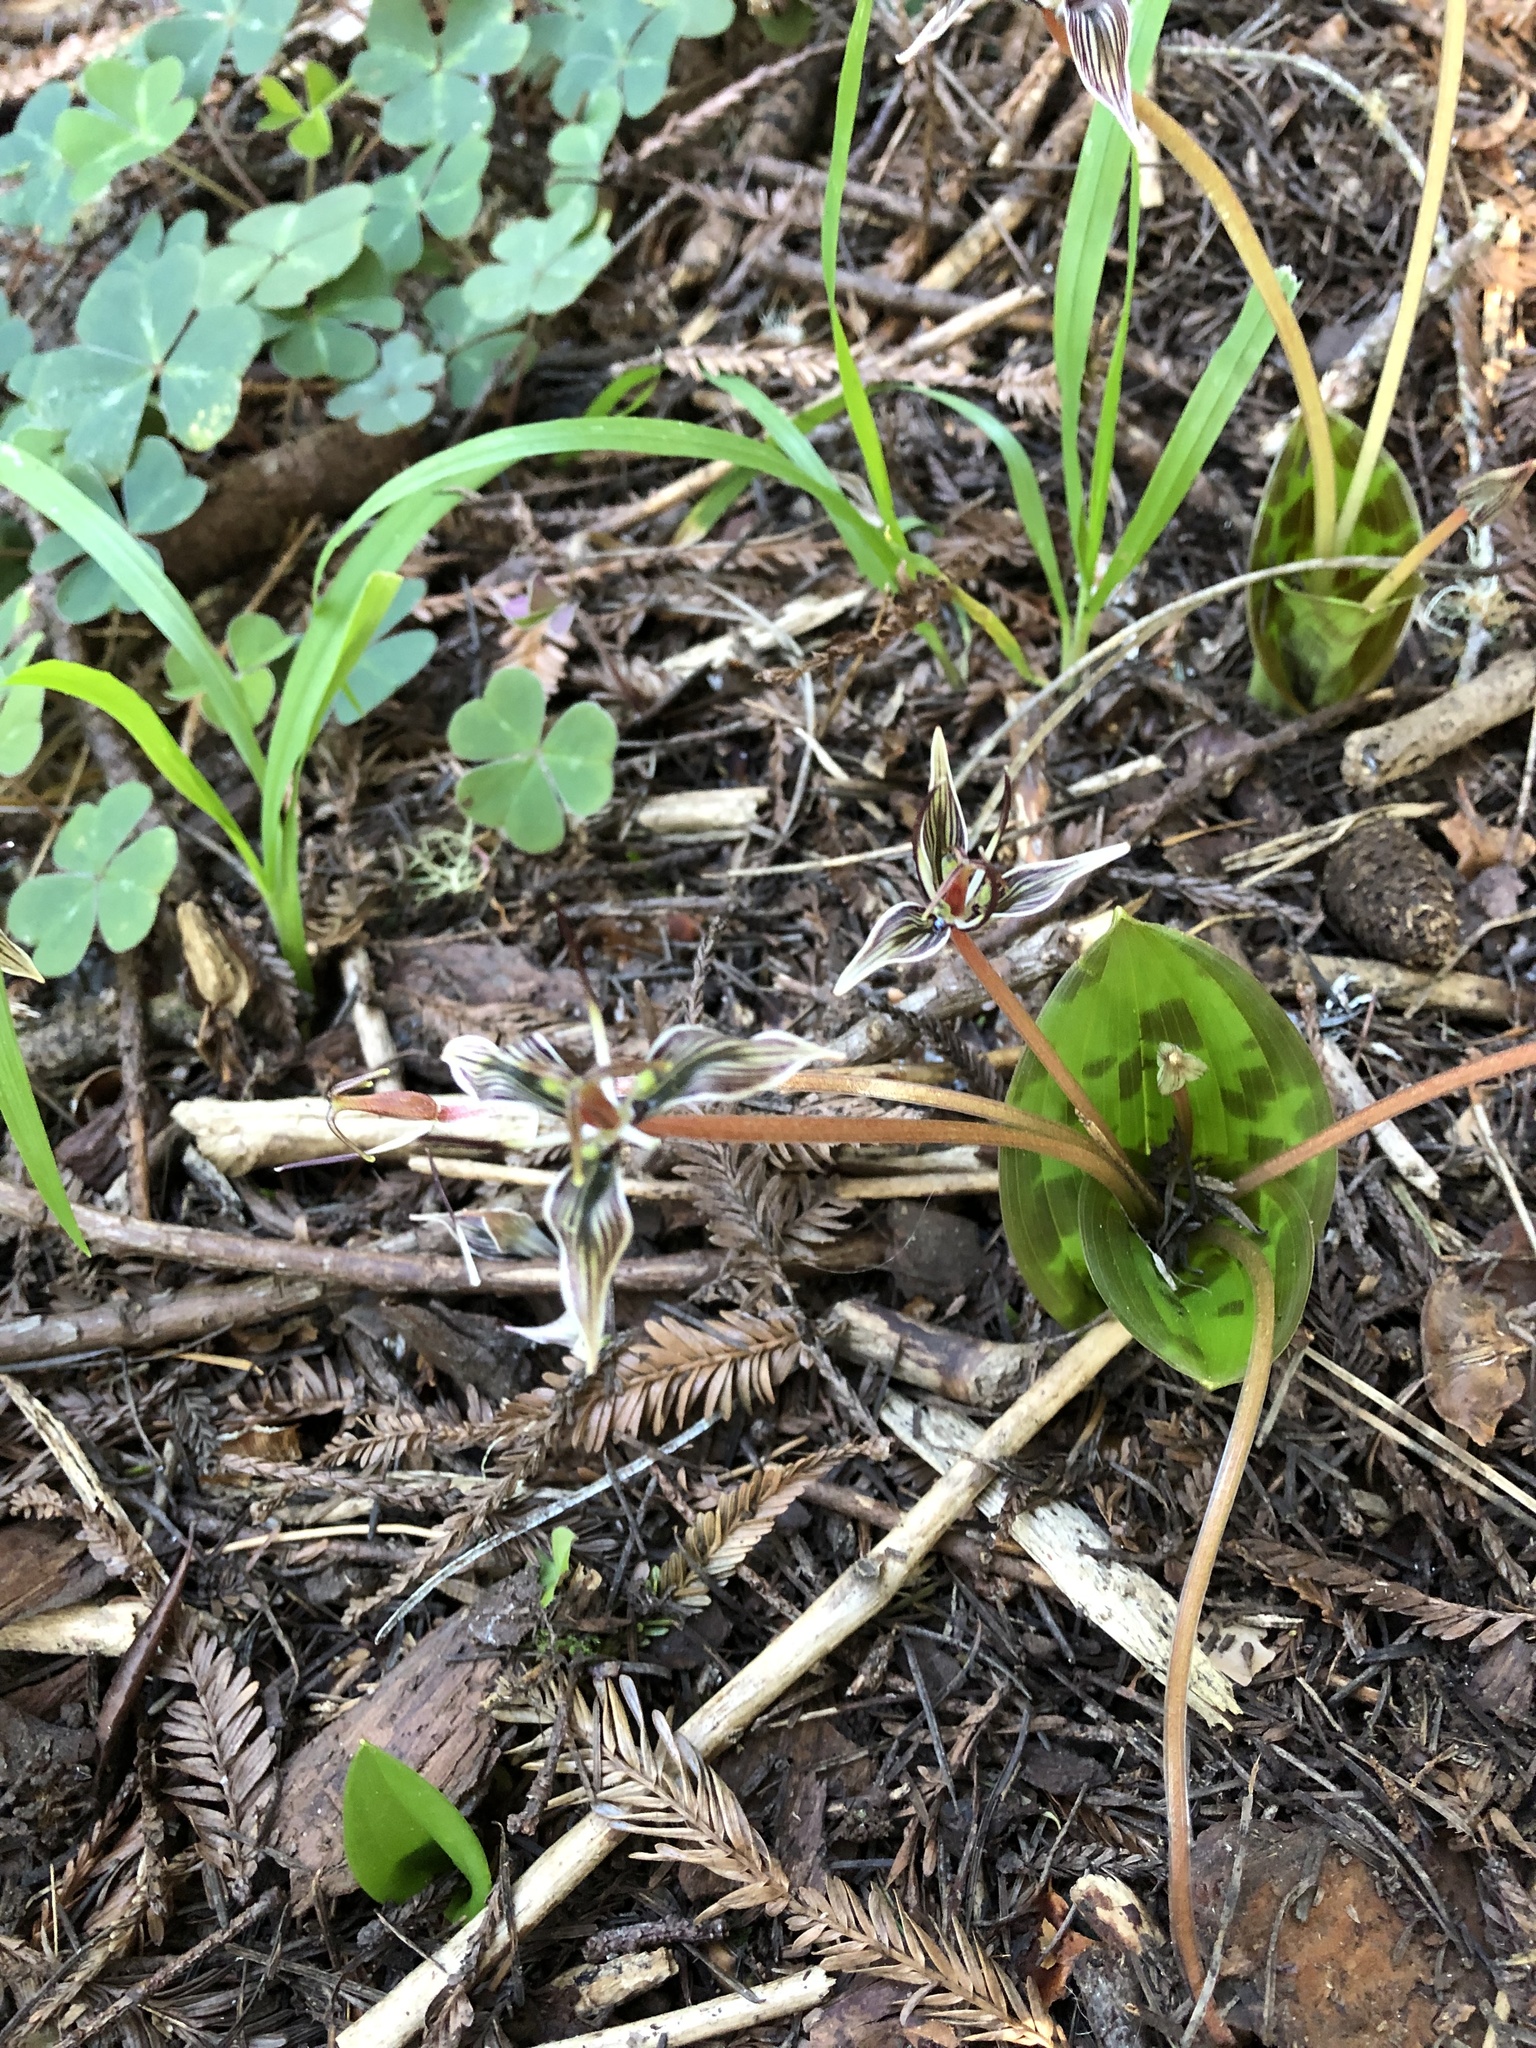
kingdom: Plantae
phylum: Tracheophyta
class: Liliopsida
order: Liliales
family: Liliaceae
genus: Scoliopus
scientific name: Scoliopus bigelovii
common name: Foetid adder's-tongue
